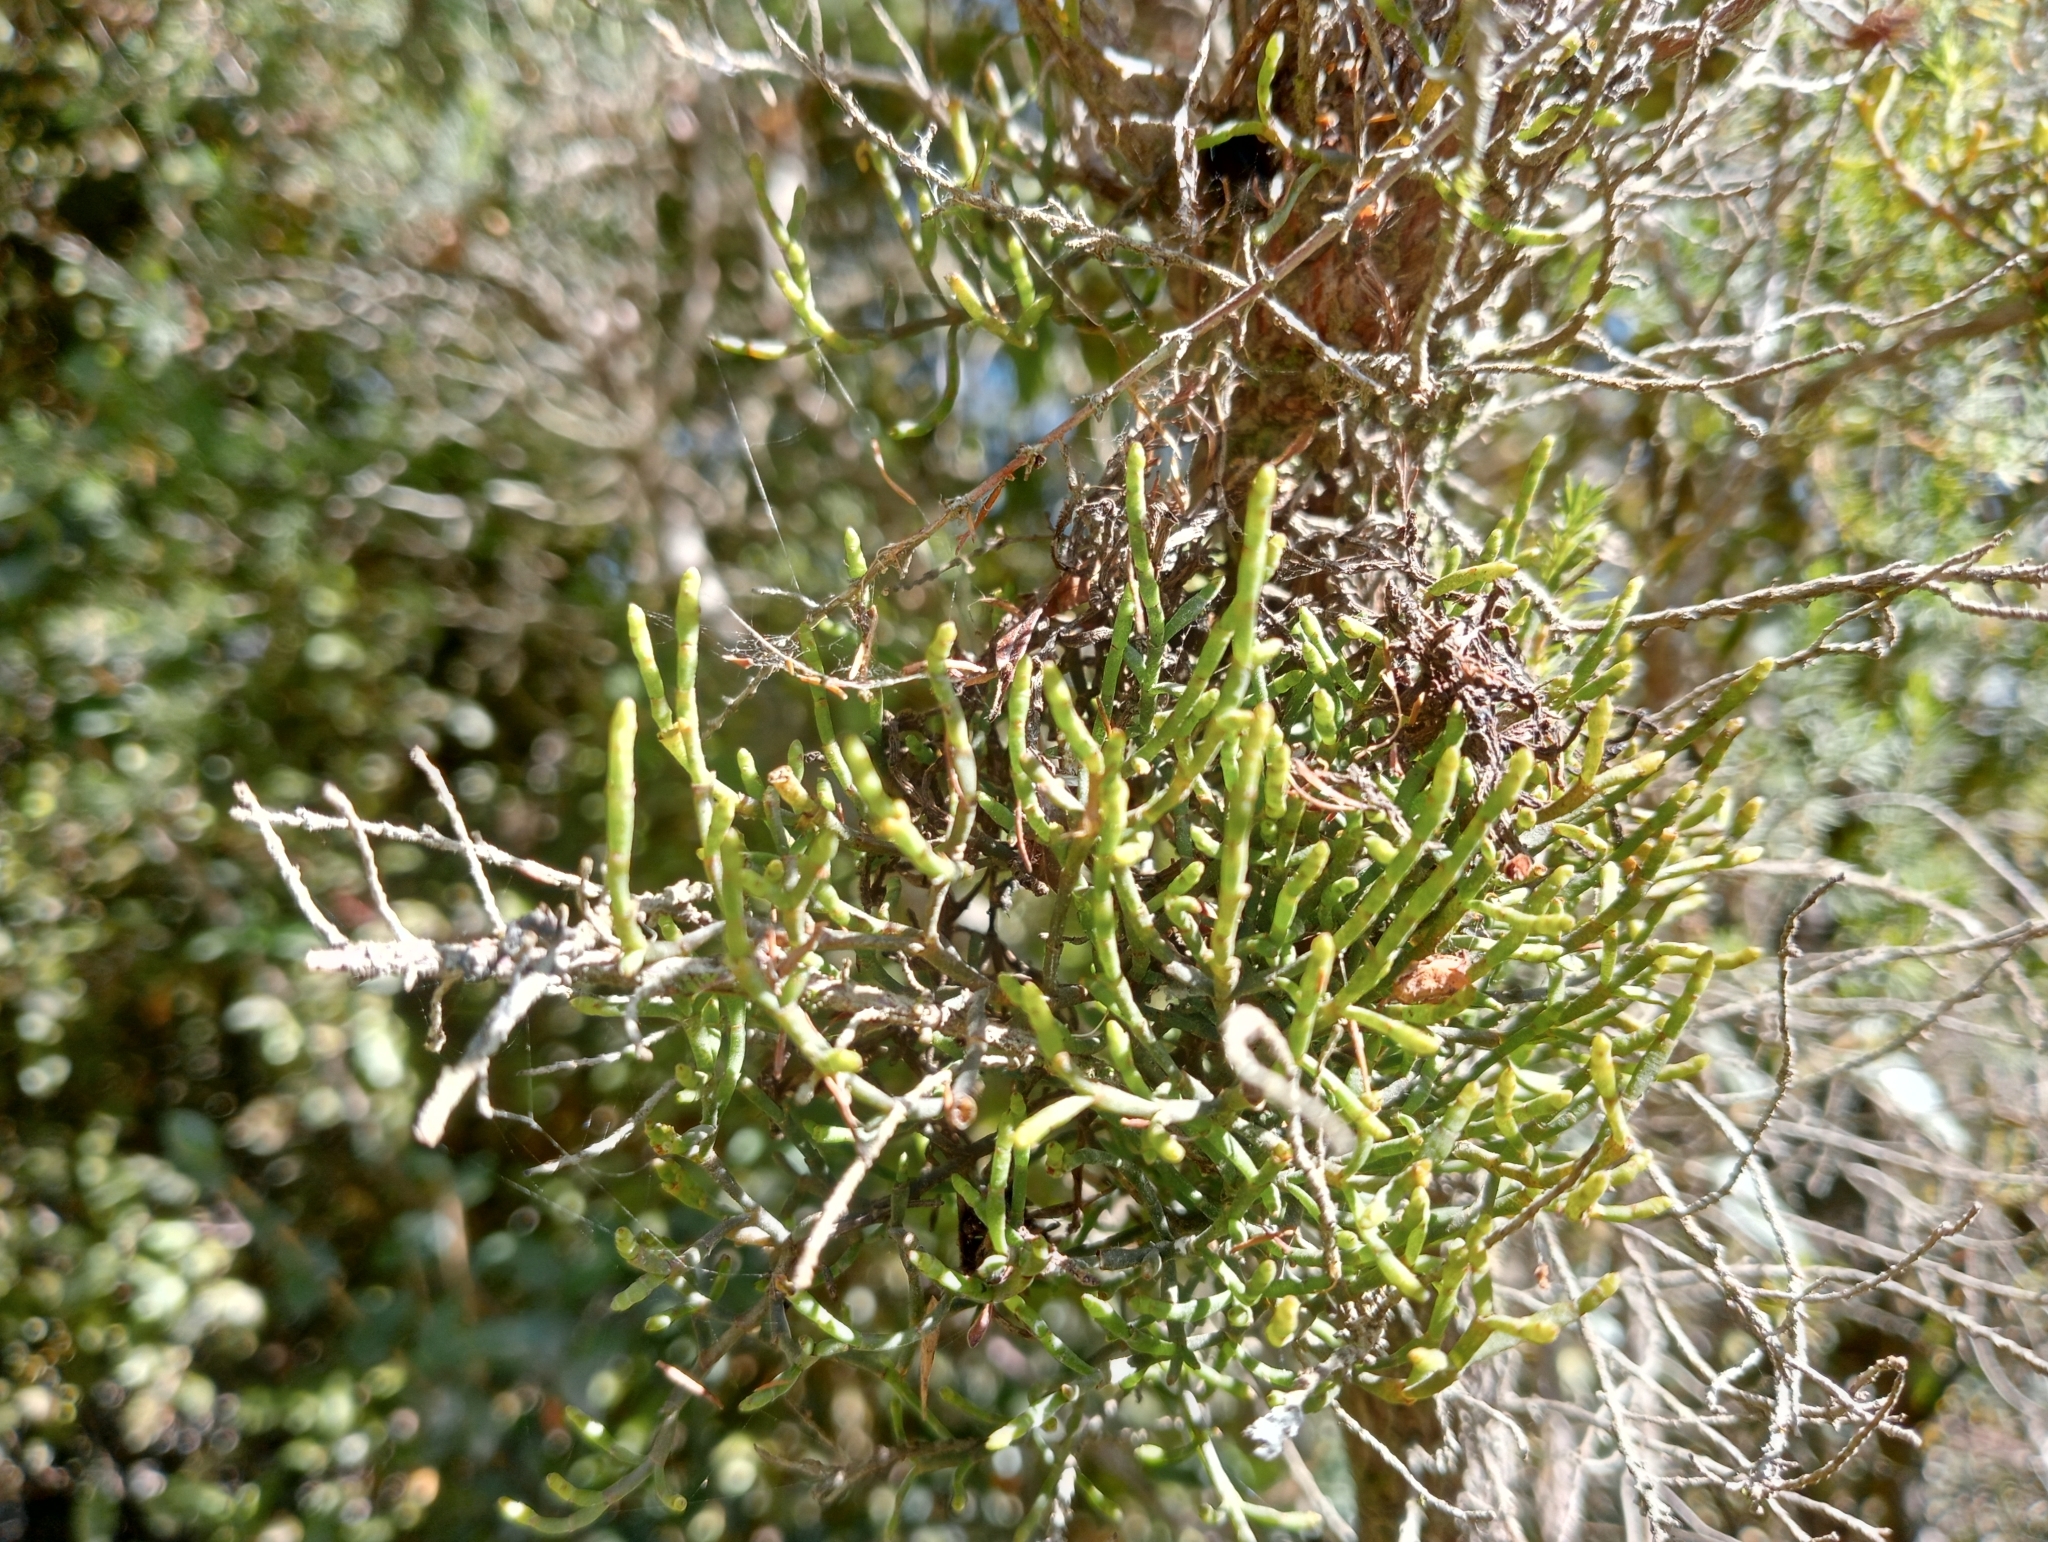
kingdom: Plantae
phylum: Tracheophyta
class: Magnoliopsida
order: Santalales
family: Viscaceae
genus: Korthalsella
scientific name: Korthalsella salicornioides
